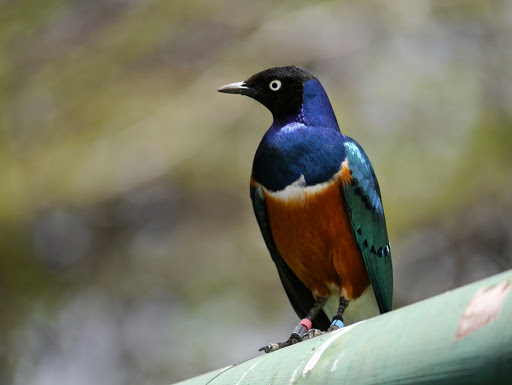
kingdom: Animalia
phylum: Chordata
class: Aves
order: Passeriformes
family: Sturnidae
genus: Lamprotornis
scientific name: Lamprotornis superbus
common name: Superb starling
